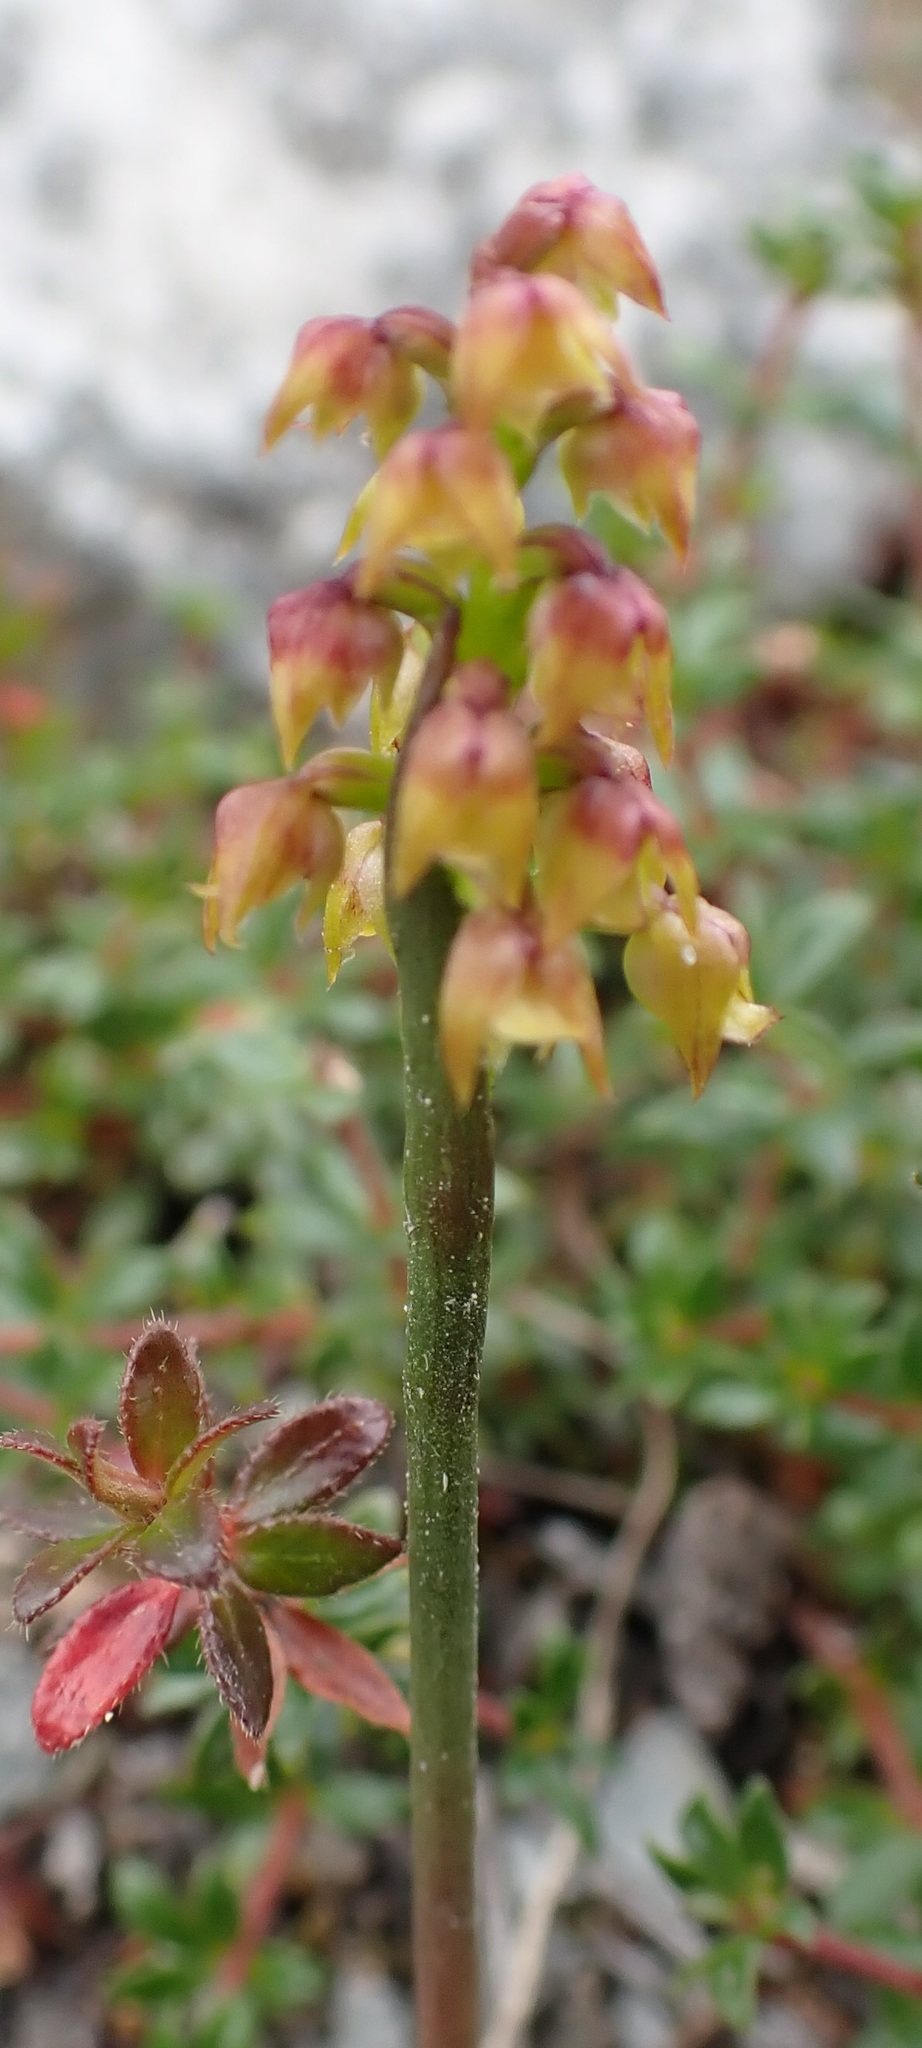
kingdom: Plantae
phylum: Tracheophyta
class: Liliopsida
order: Asparagales
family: Orchidaceae
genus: Genoplesium
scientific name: Genoplesium pumilum
